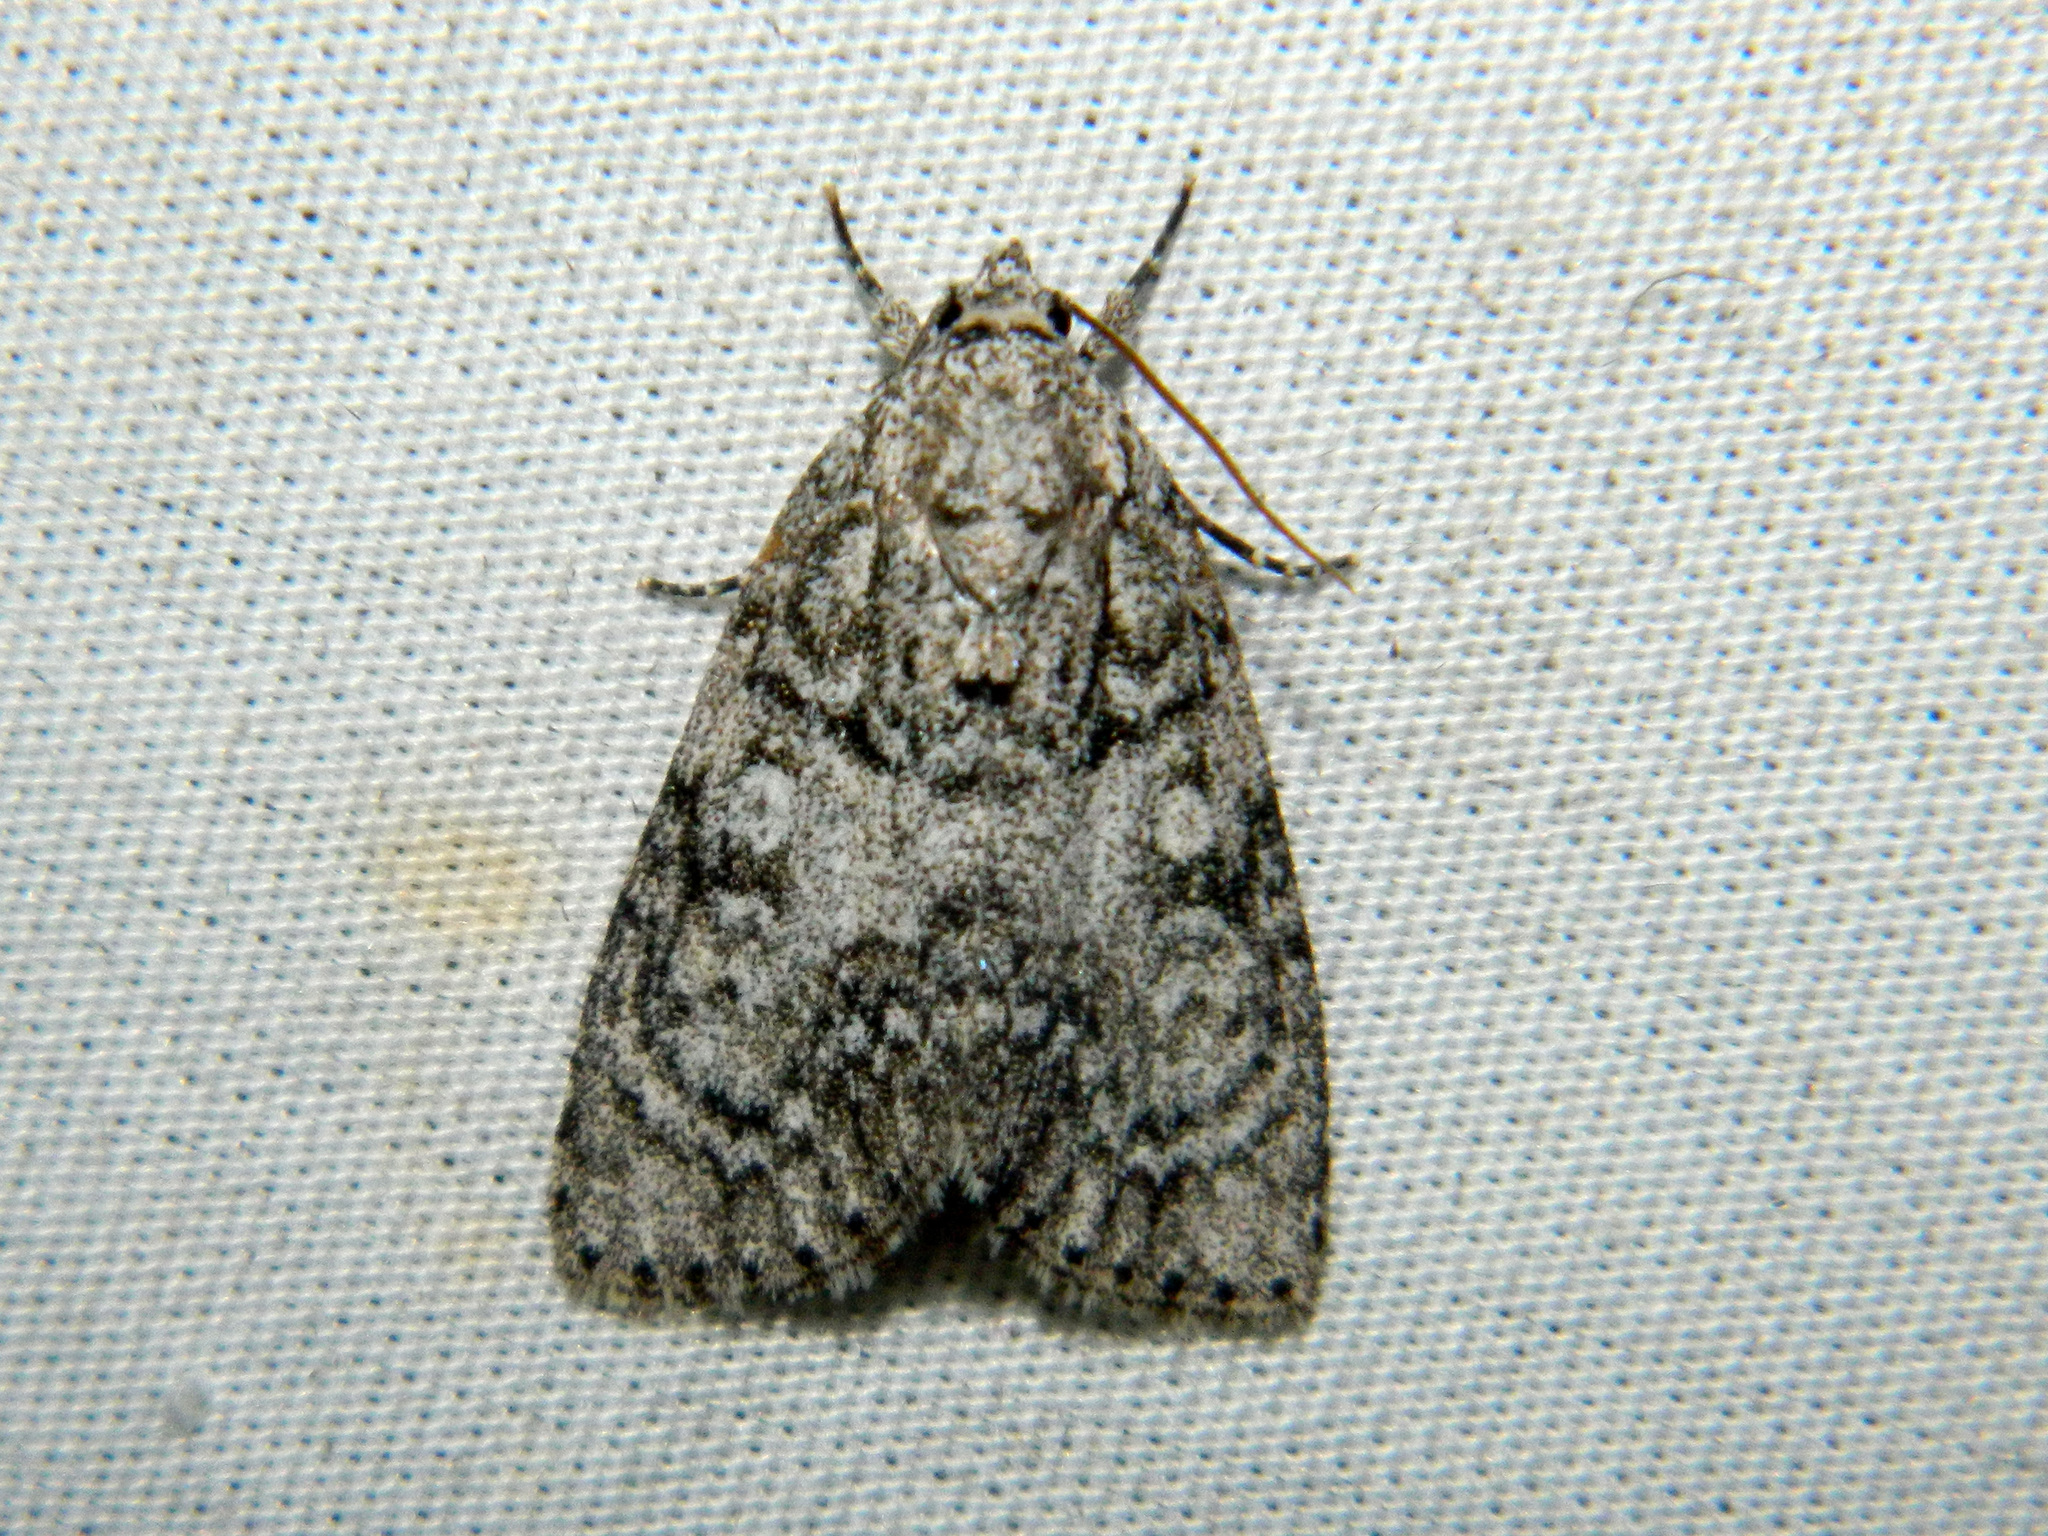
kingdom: Animalia
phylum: Arthropoda
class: Insecta
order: Lepidoptera
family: Noctuidae
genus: Acronicta
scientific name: Acronicta retardata
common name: Maple dagger
